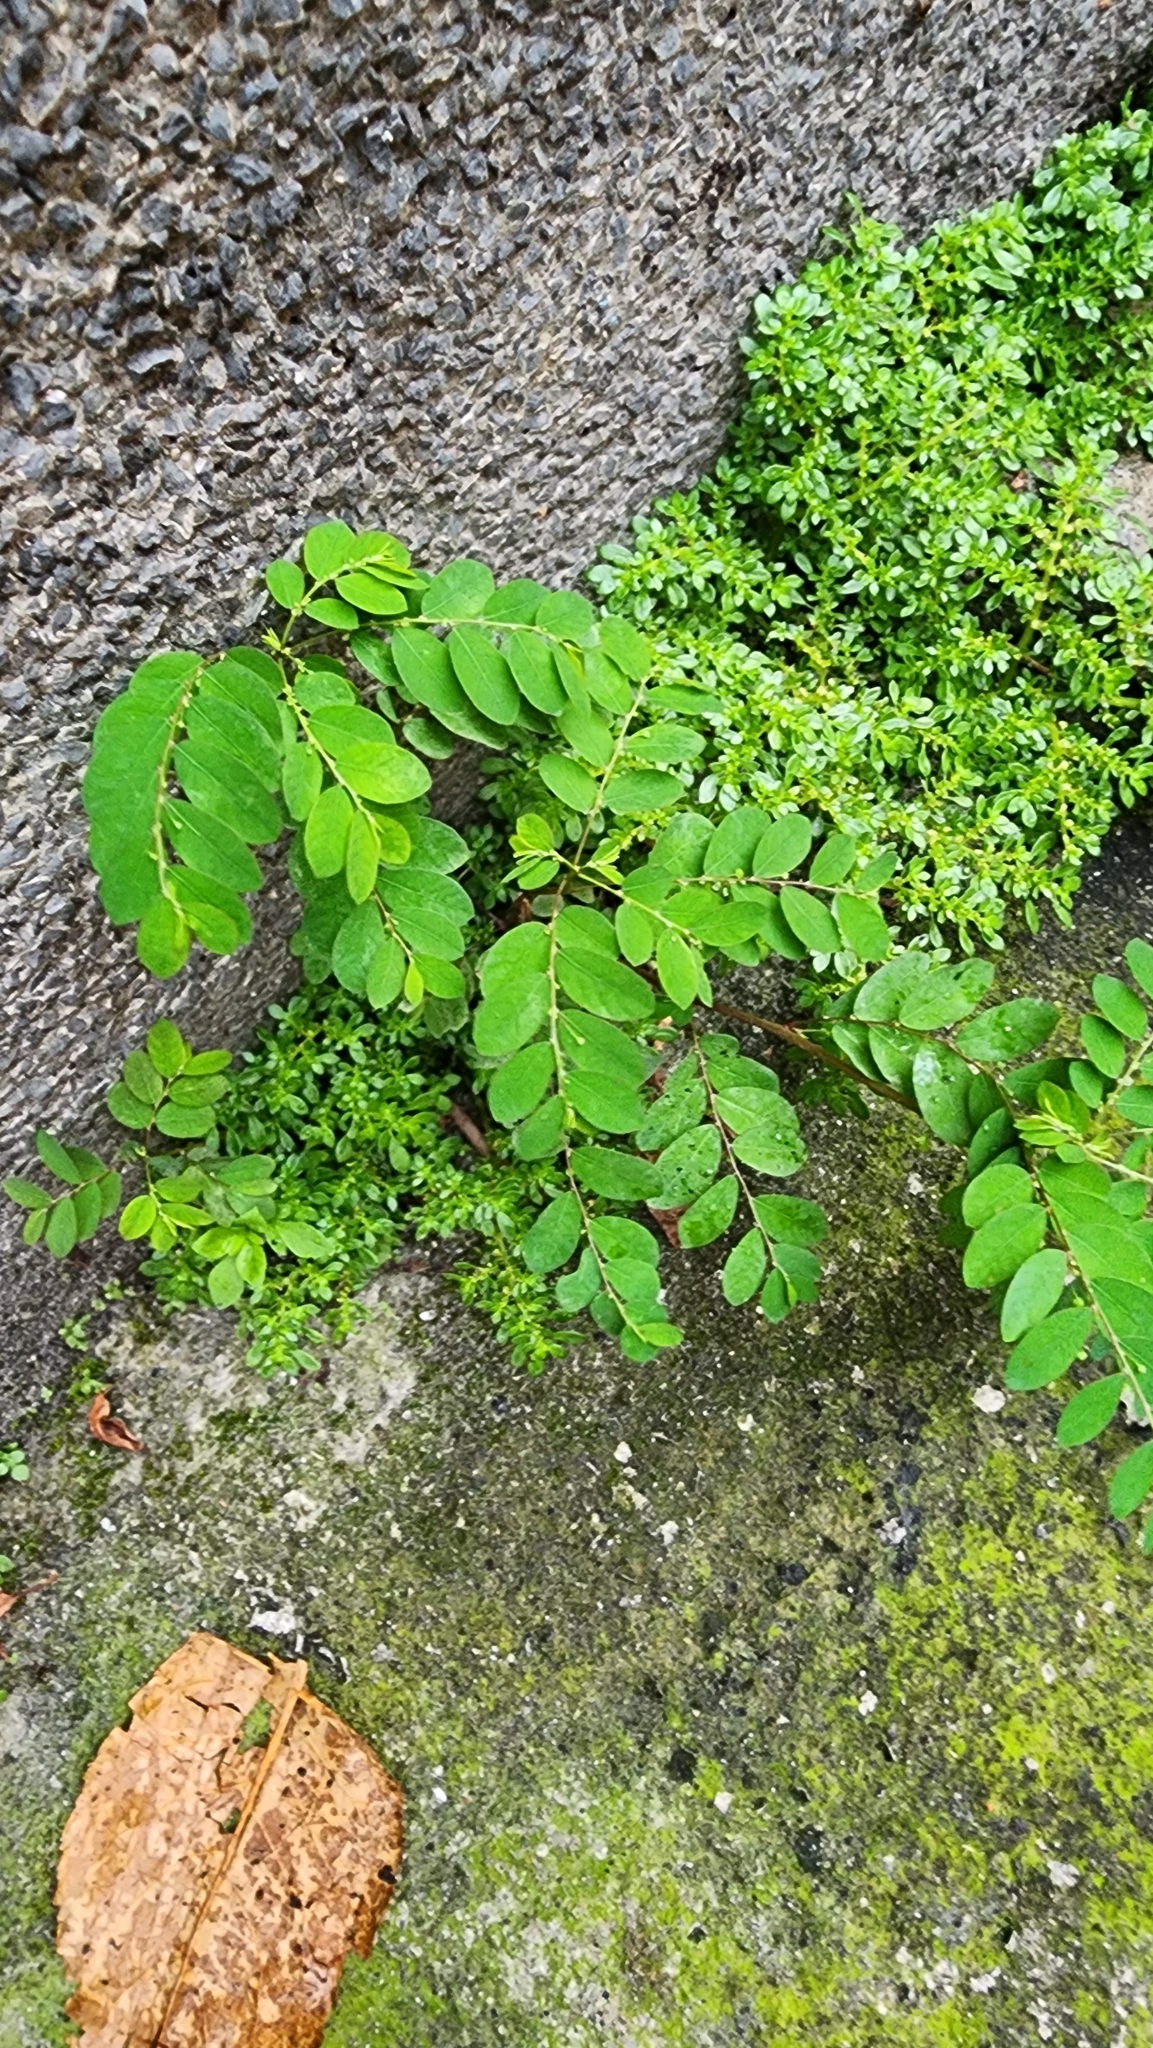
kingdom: Plantae
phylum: Tracheophyta
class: Magnoliopsida
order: Malpighiales
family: Phyllanthaceae
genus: Phyllanthus
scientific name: Phyllanthus tenellus
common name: Mascarene island leaf-flower
